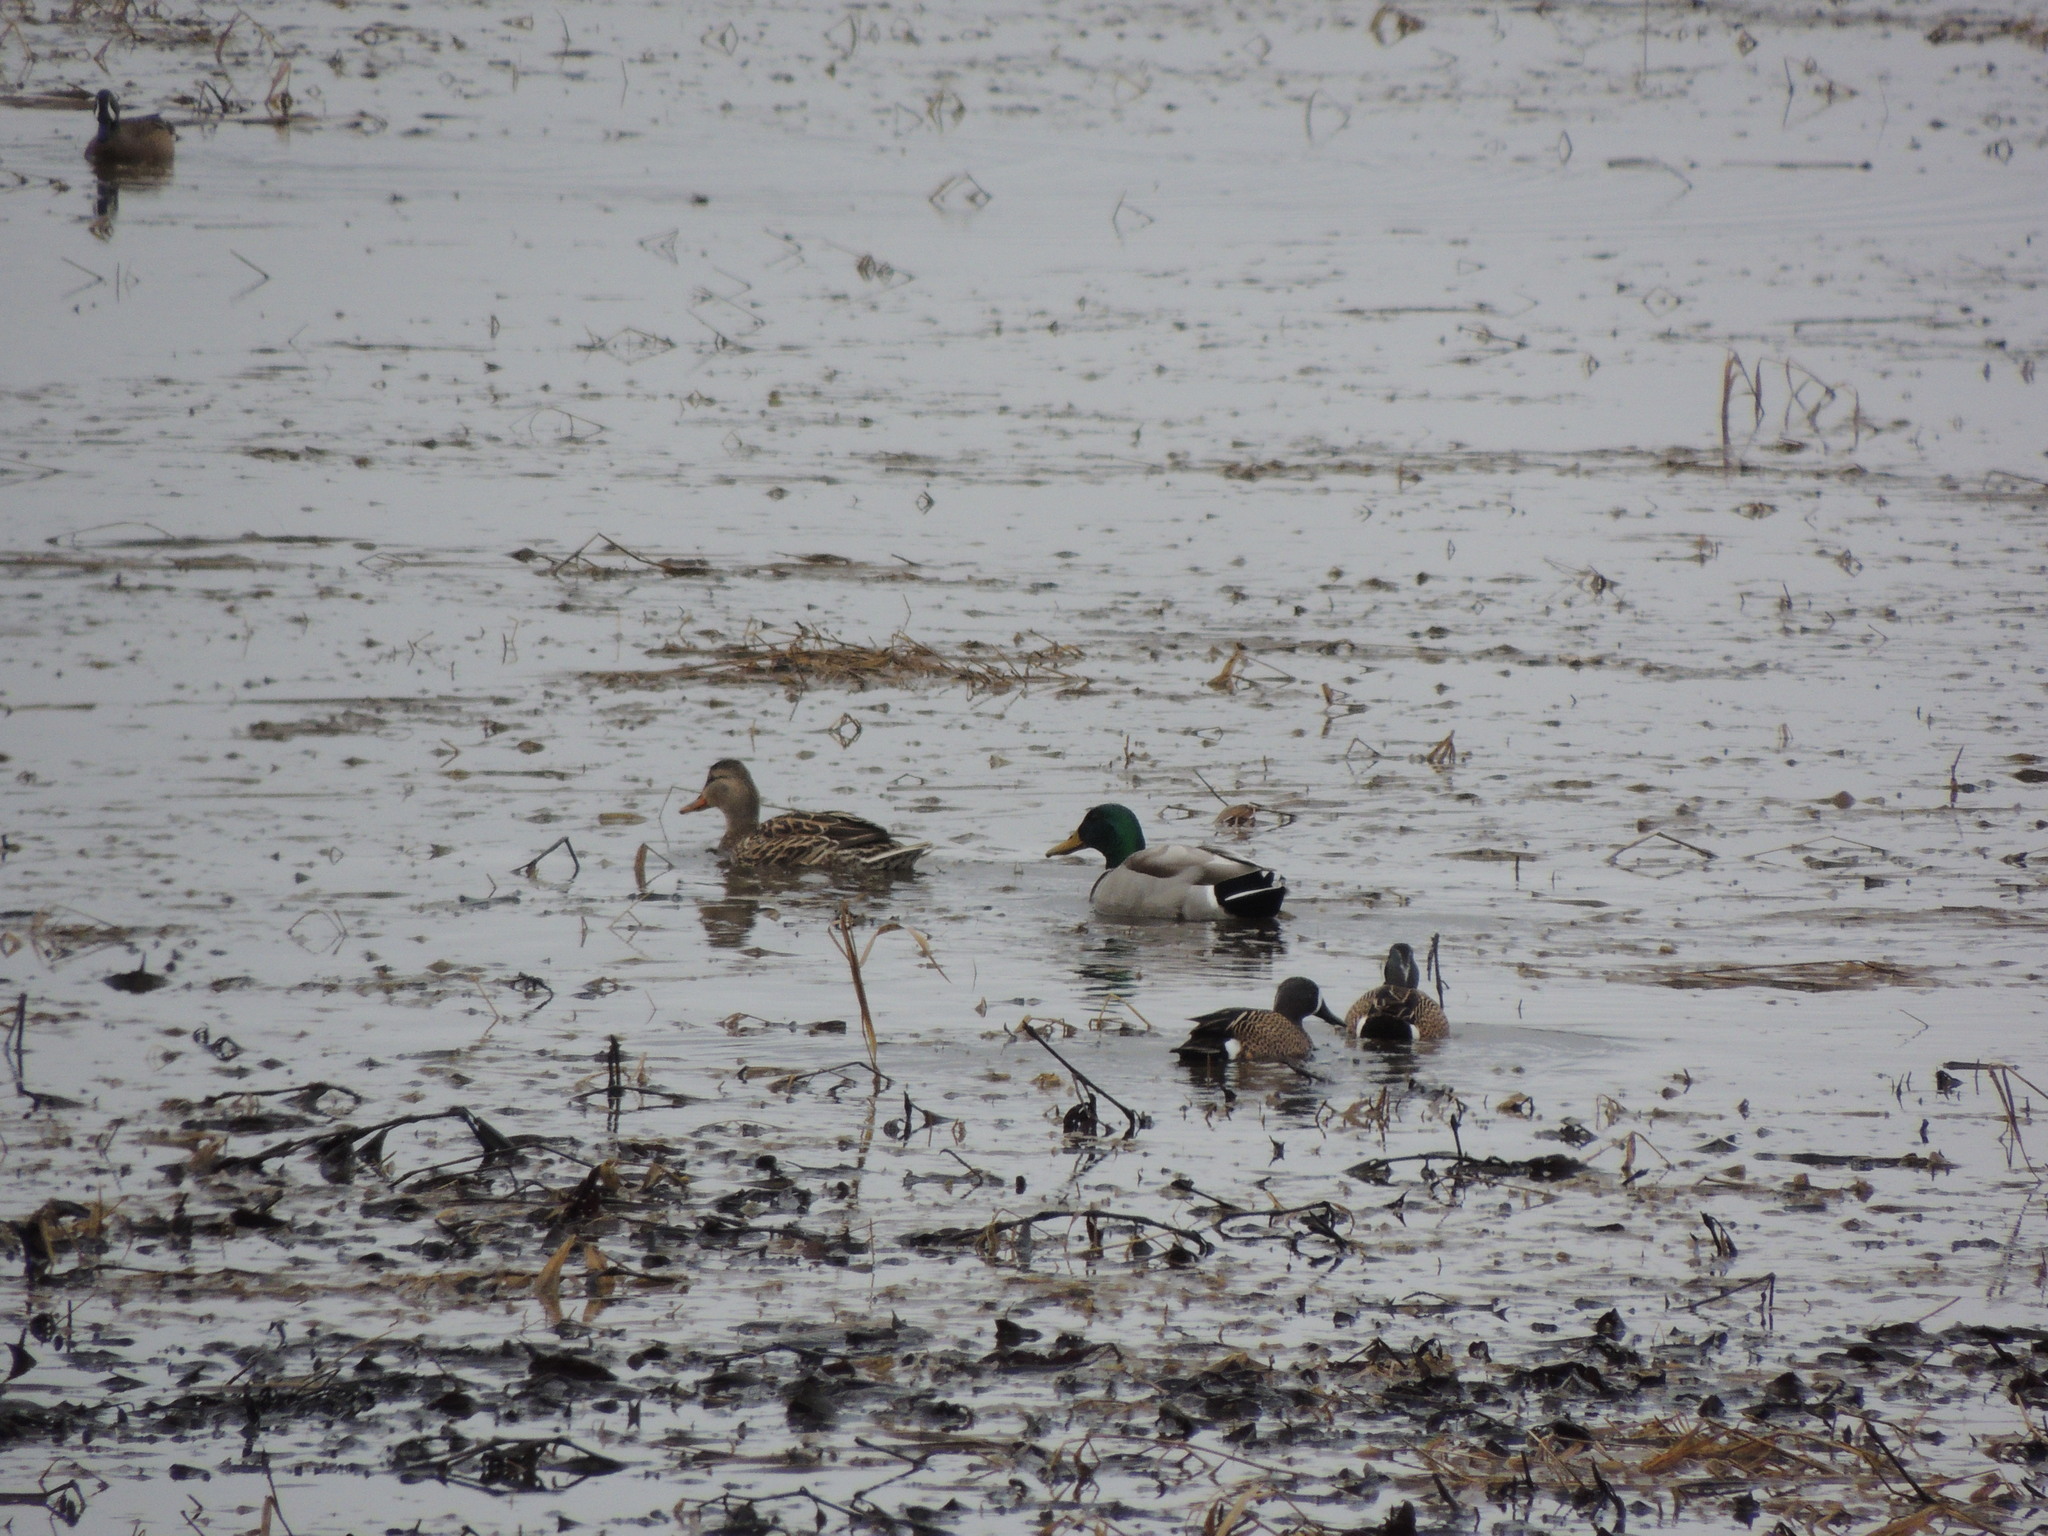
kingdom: Animalia
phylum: Chordata
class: Aves
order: Anseriformes
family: Anatidae
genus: Anas
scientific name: Anas platyrhynchos
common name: Mallard
